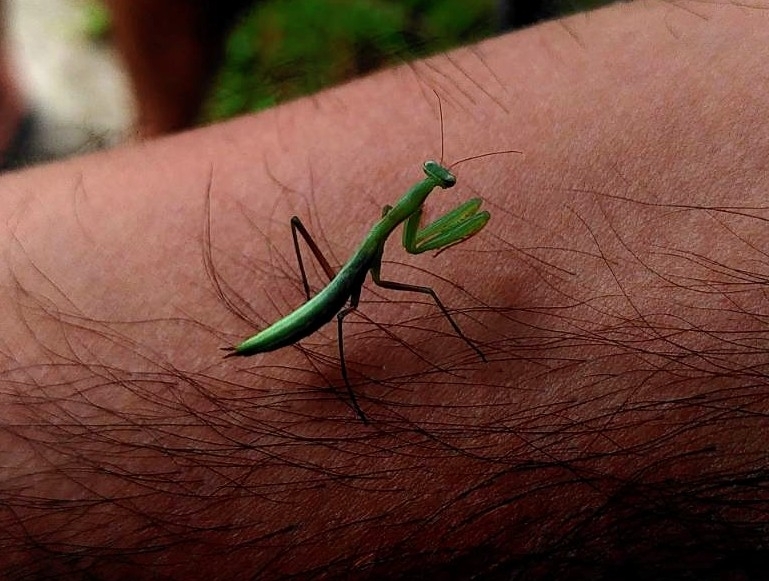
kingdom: Animalia
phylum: Arthropoda
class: Insecta
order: Mantodea
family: Mantidae
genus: Mantis
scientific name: Mantis religiosa
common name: Praying mantis
